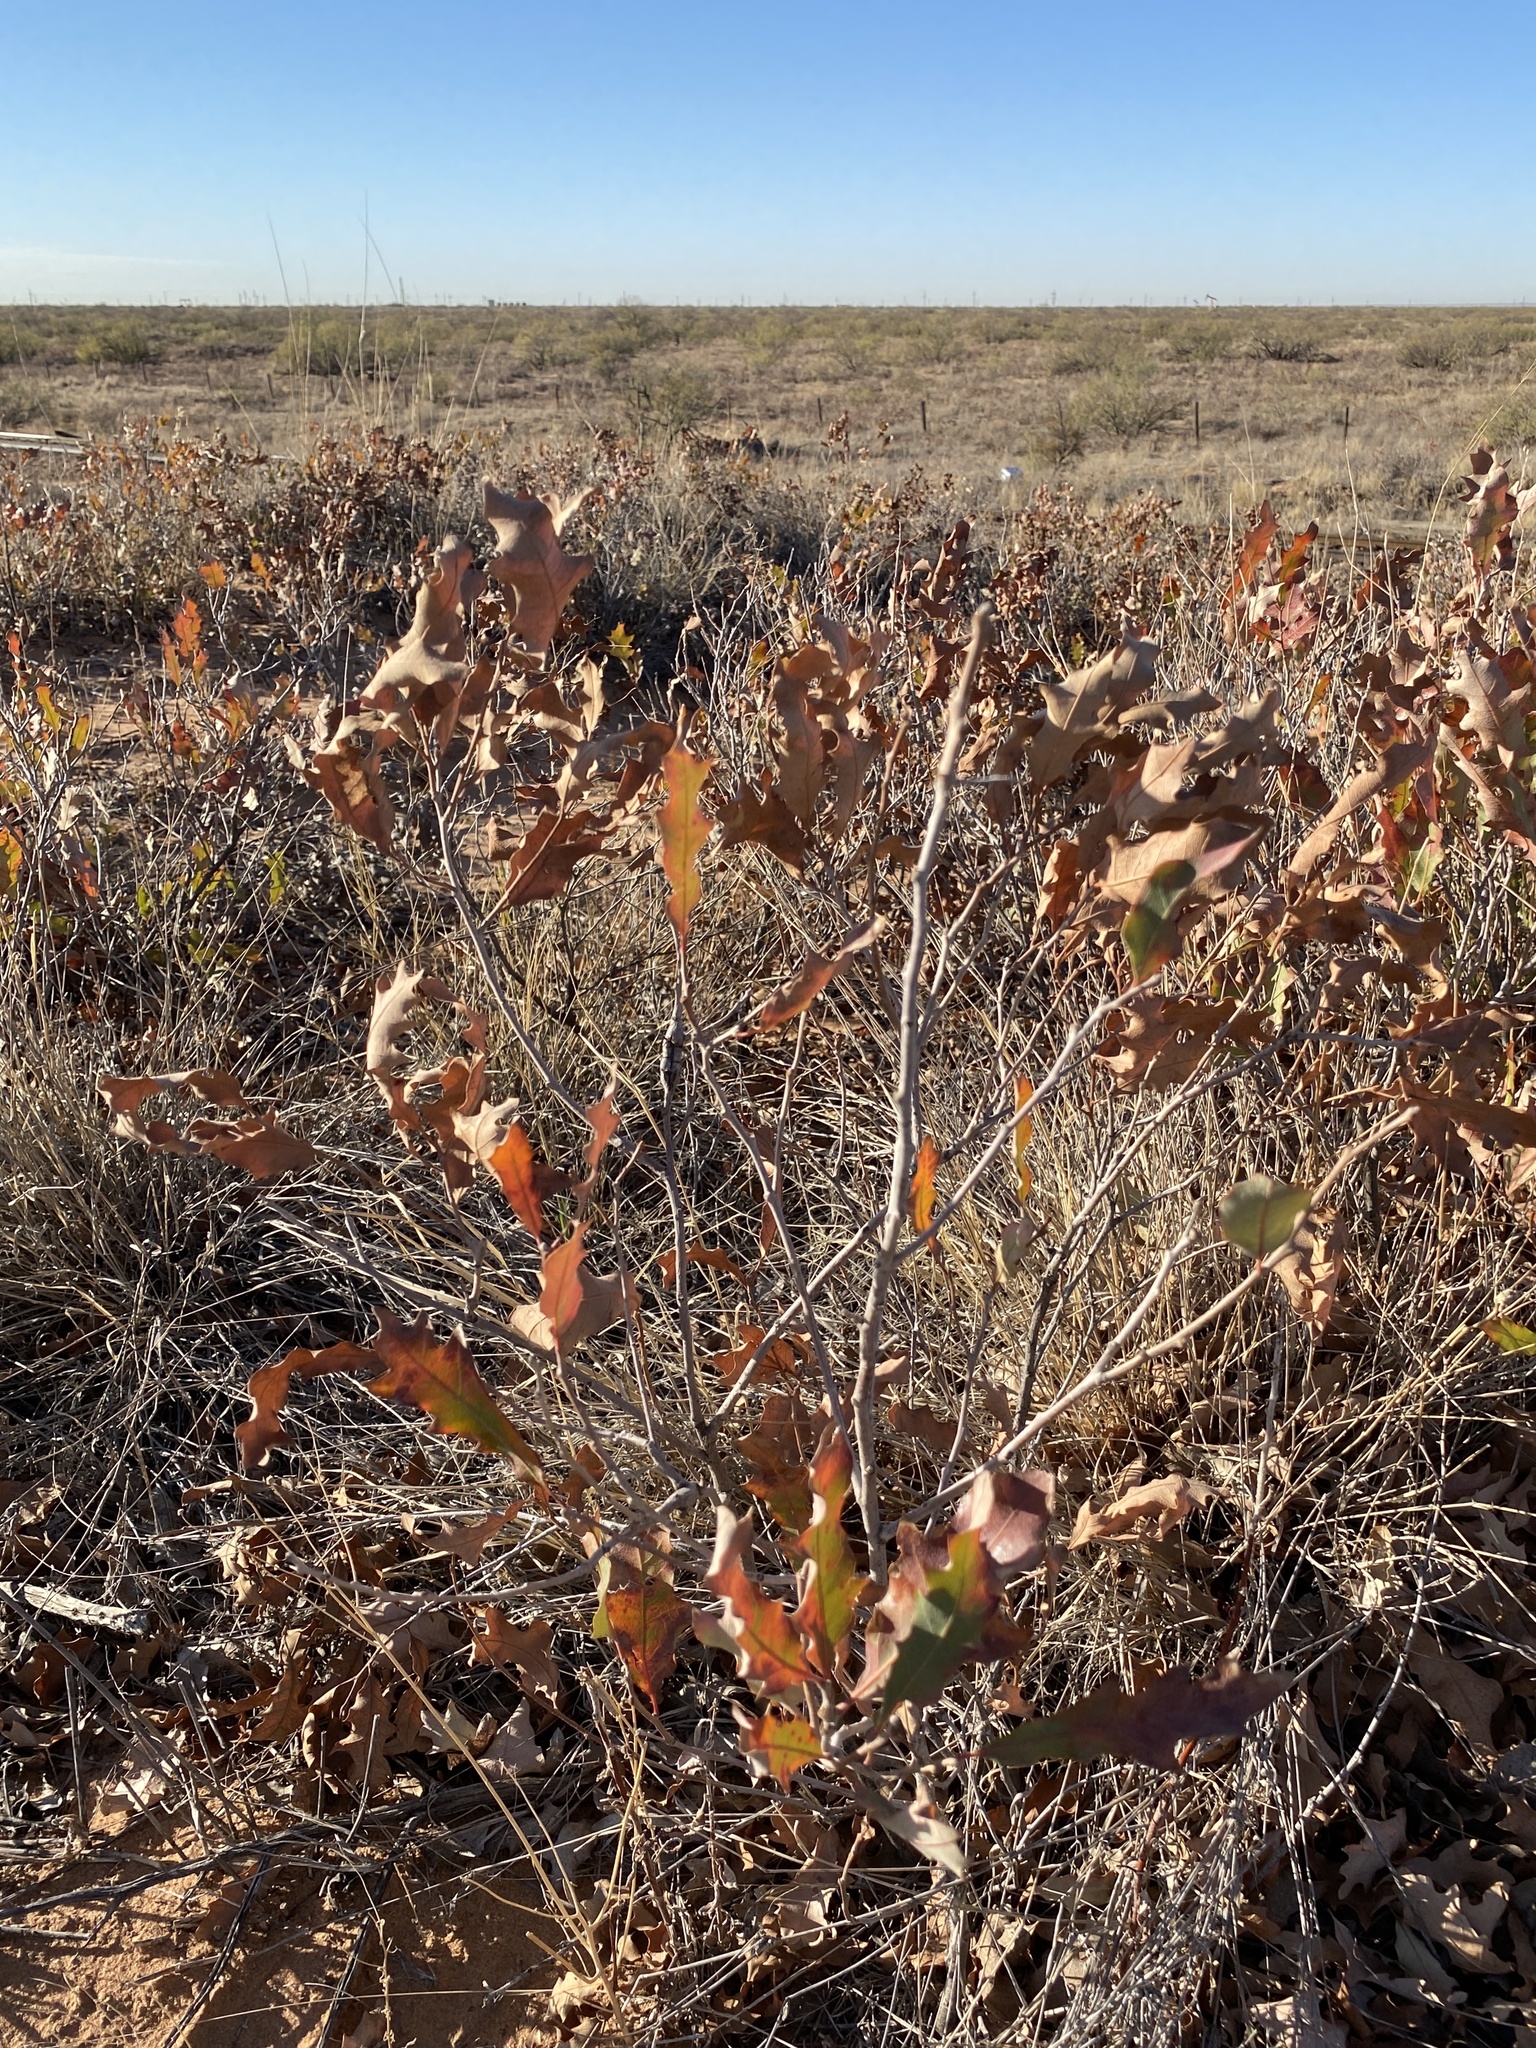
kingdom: Plantae
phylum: Tracheophyta
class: Magnoliopsida
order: Fagales
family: Fagaceae
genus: Quercus
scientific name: Quercus havardii
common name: Shinnery oak
